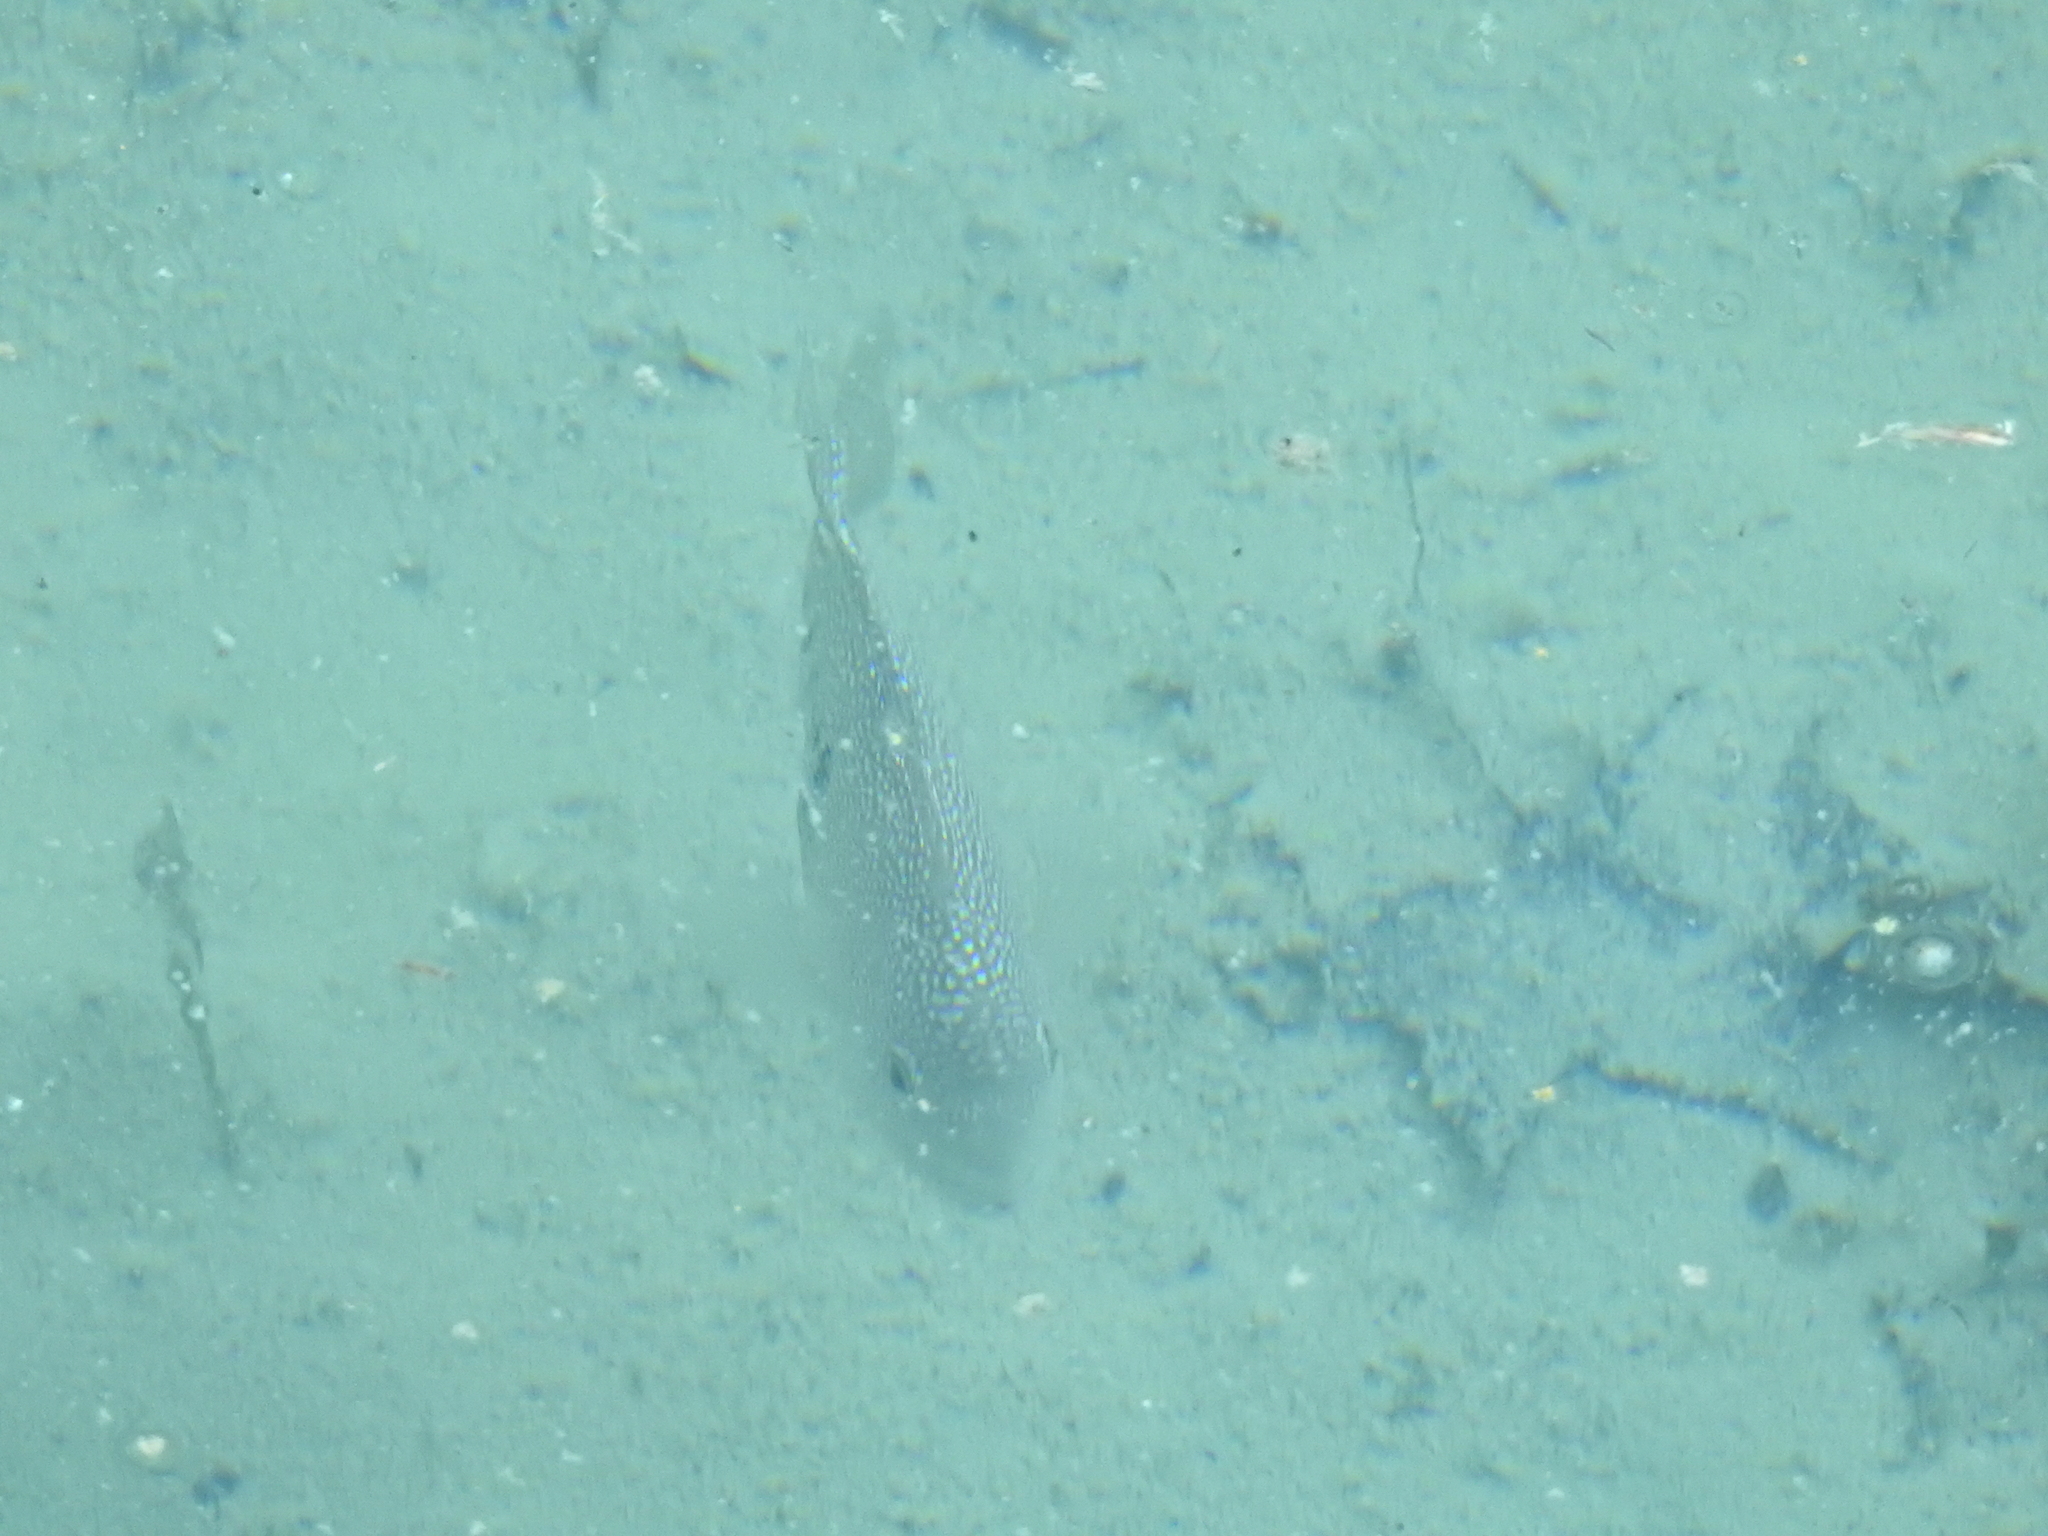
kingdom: Animalia
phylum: Chordata
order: Perciformes
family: Cichlidae
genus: Herichthys
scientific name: Herichthys cyanoguttatus
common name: Rio grande cichlid
